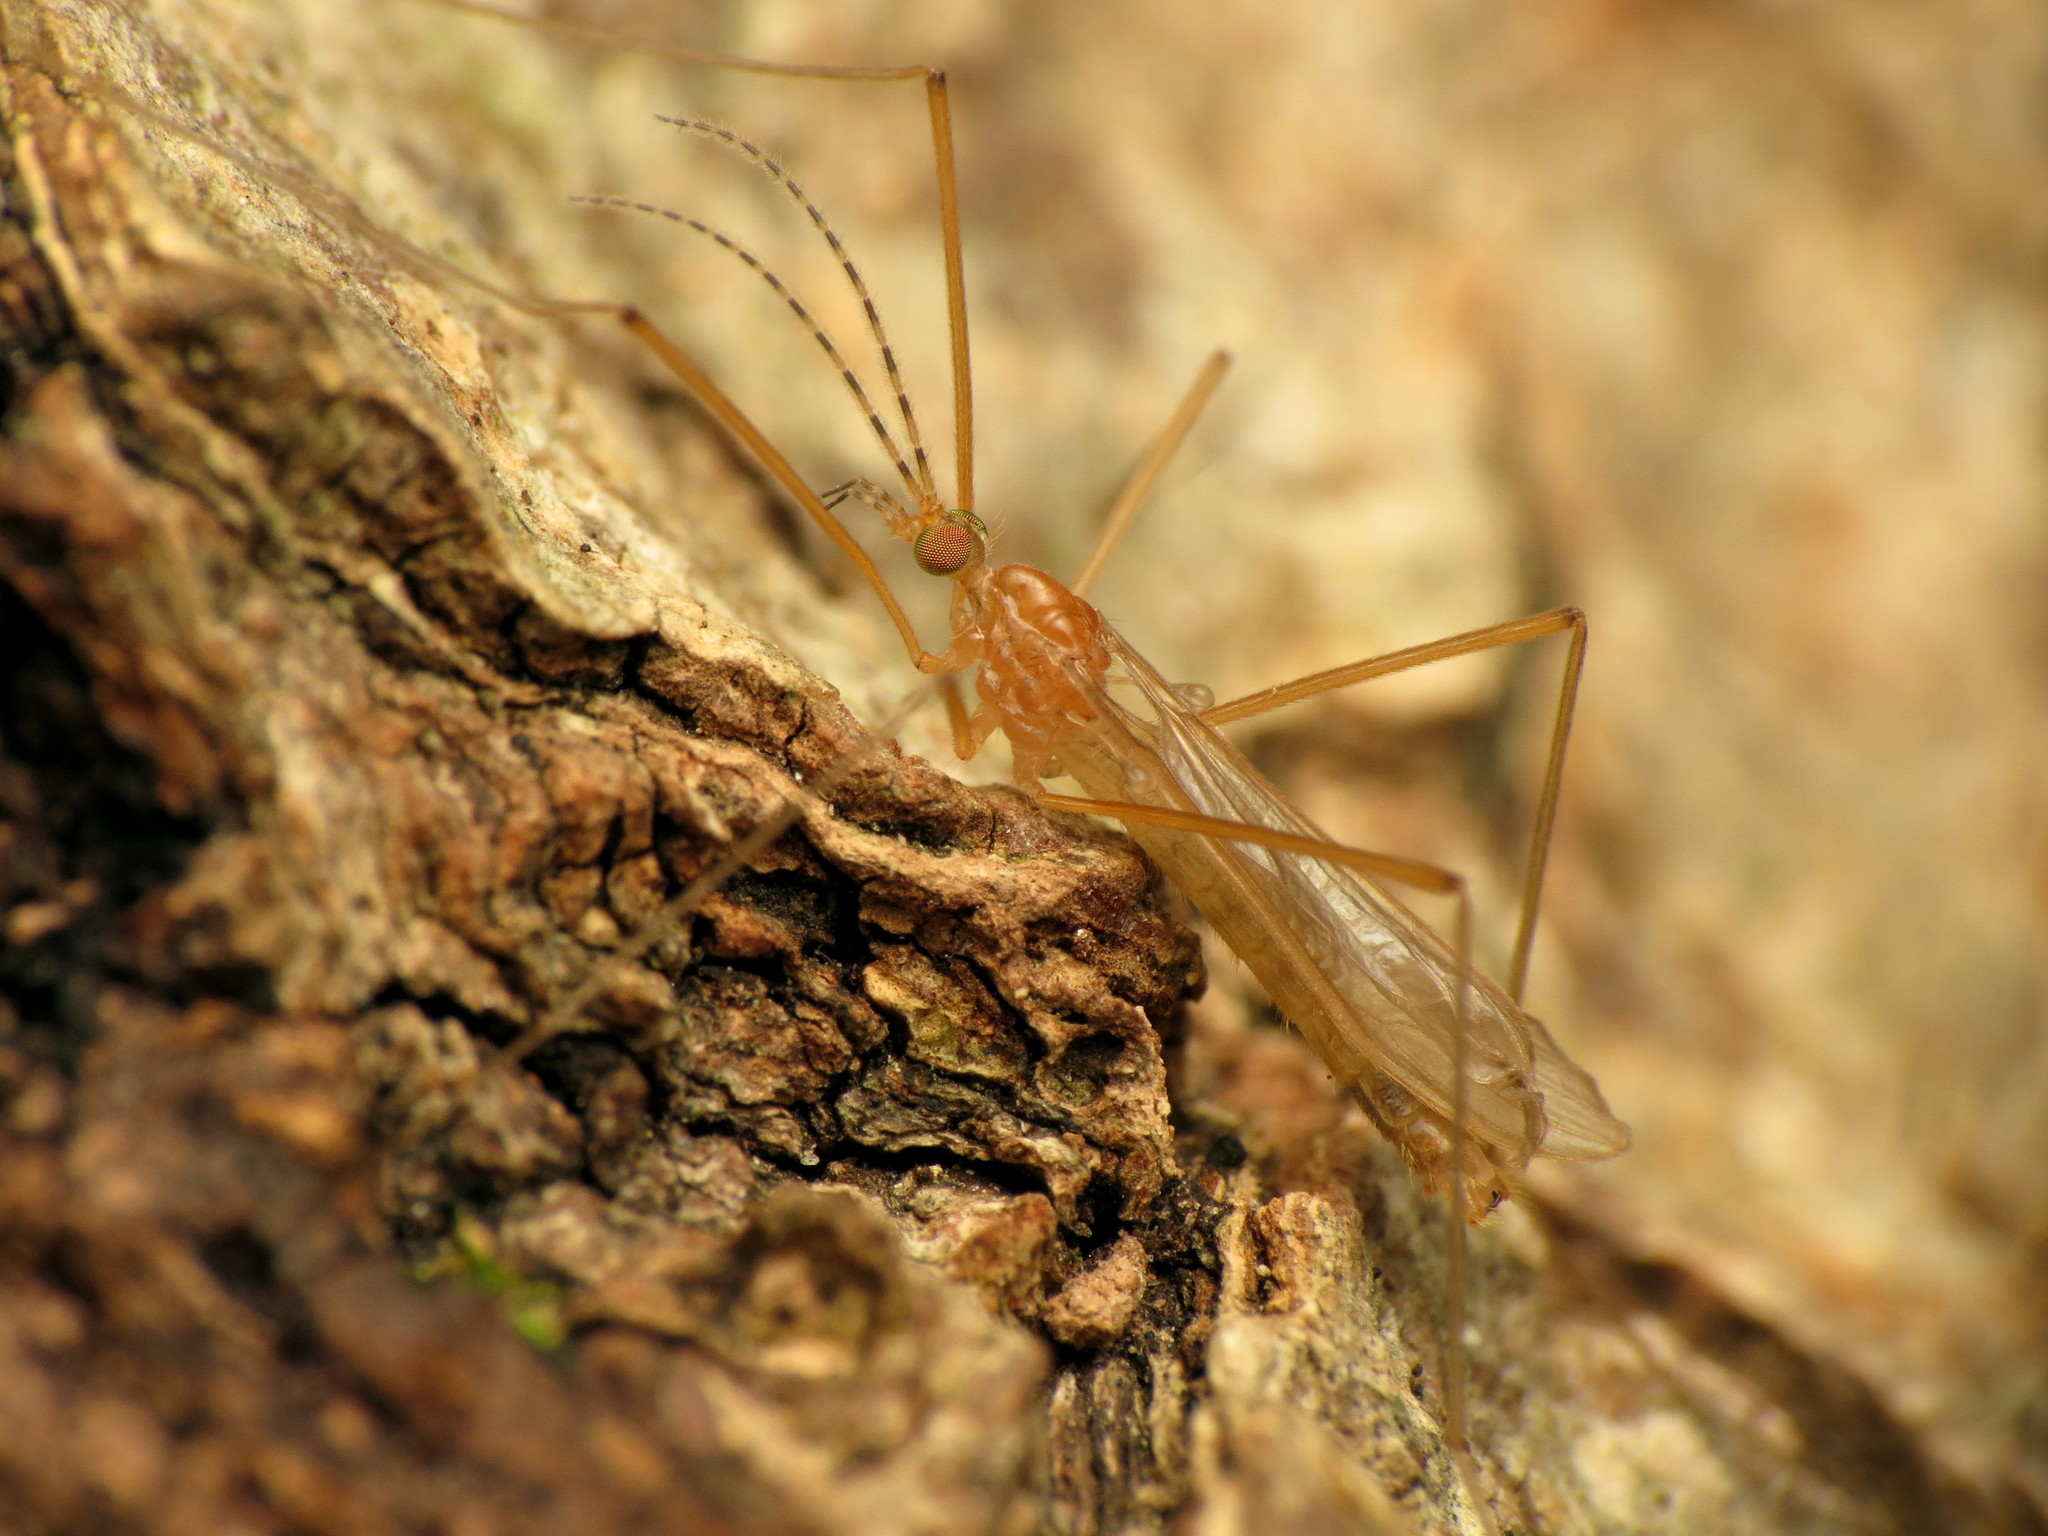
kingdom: Animalia
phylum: Arthropoda
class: Insecta
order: Diptera
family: Limoniidae
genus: Atarba
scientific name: Atarba picticornis
